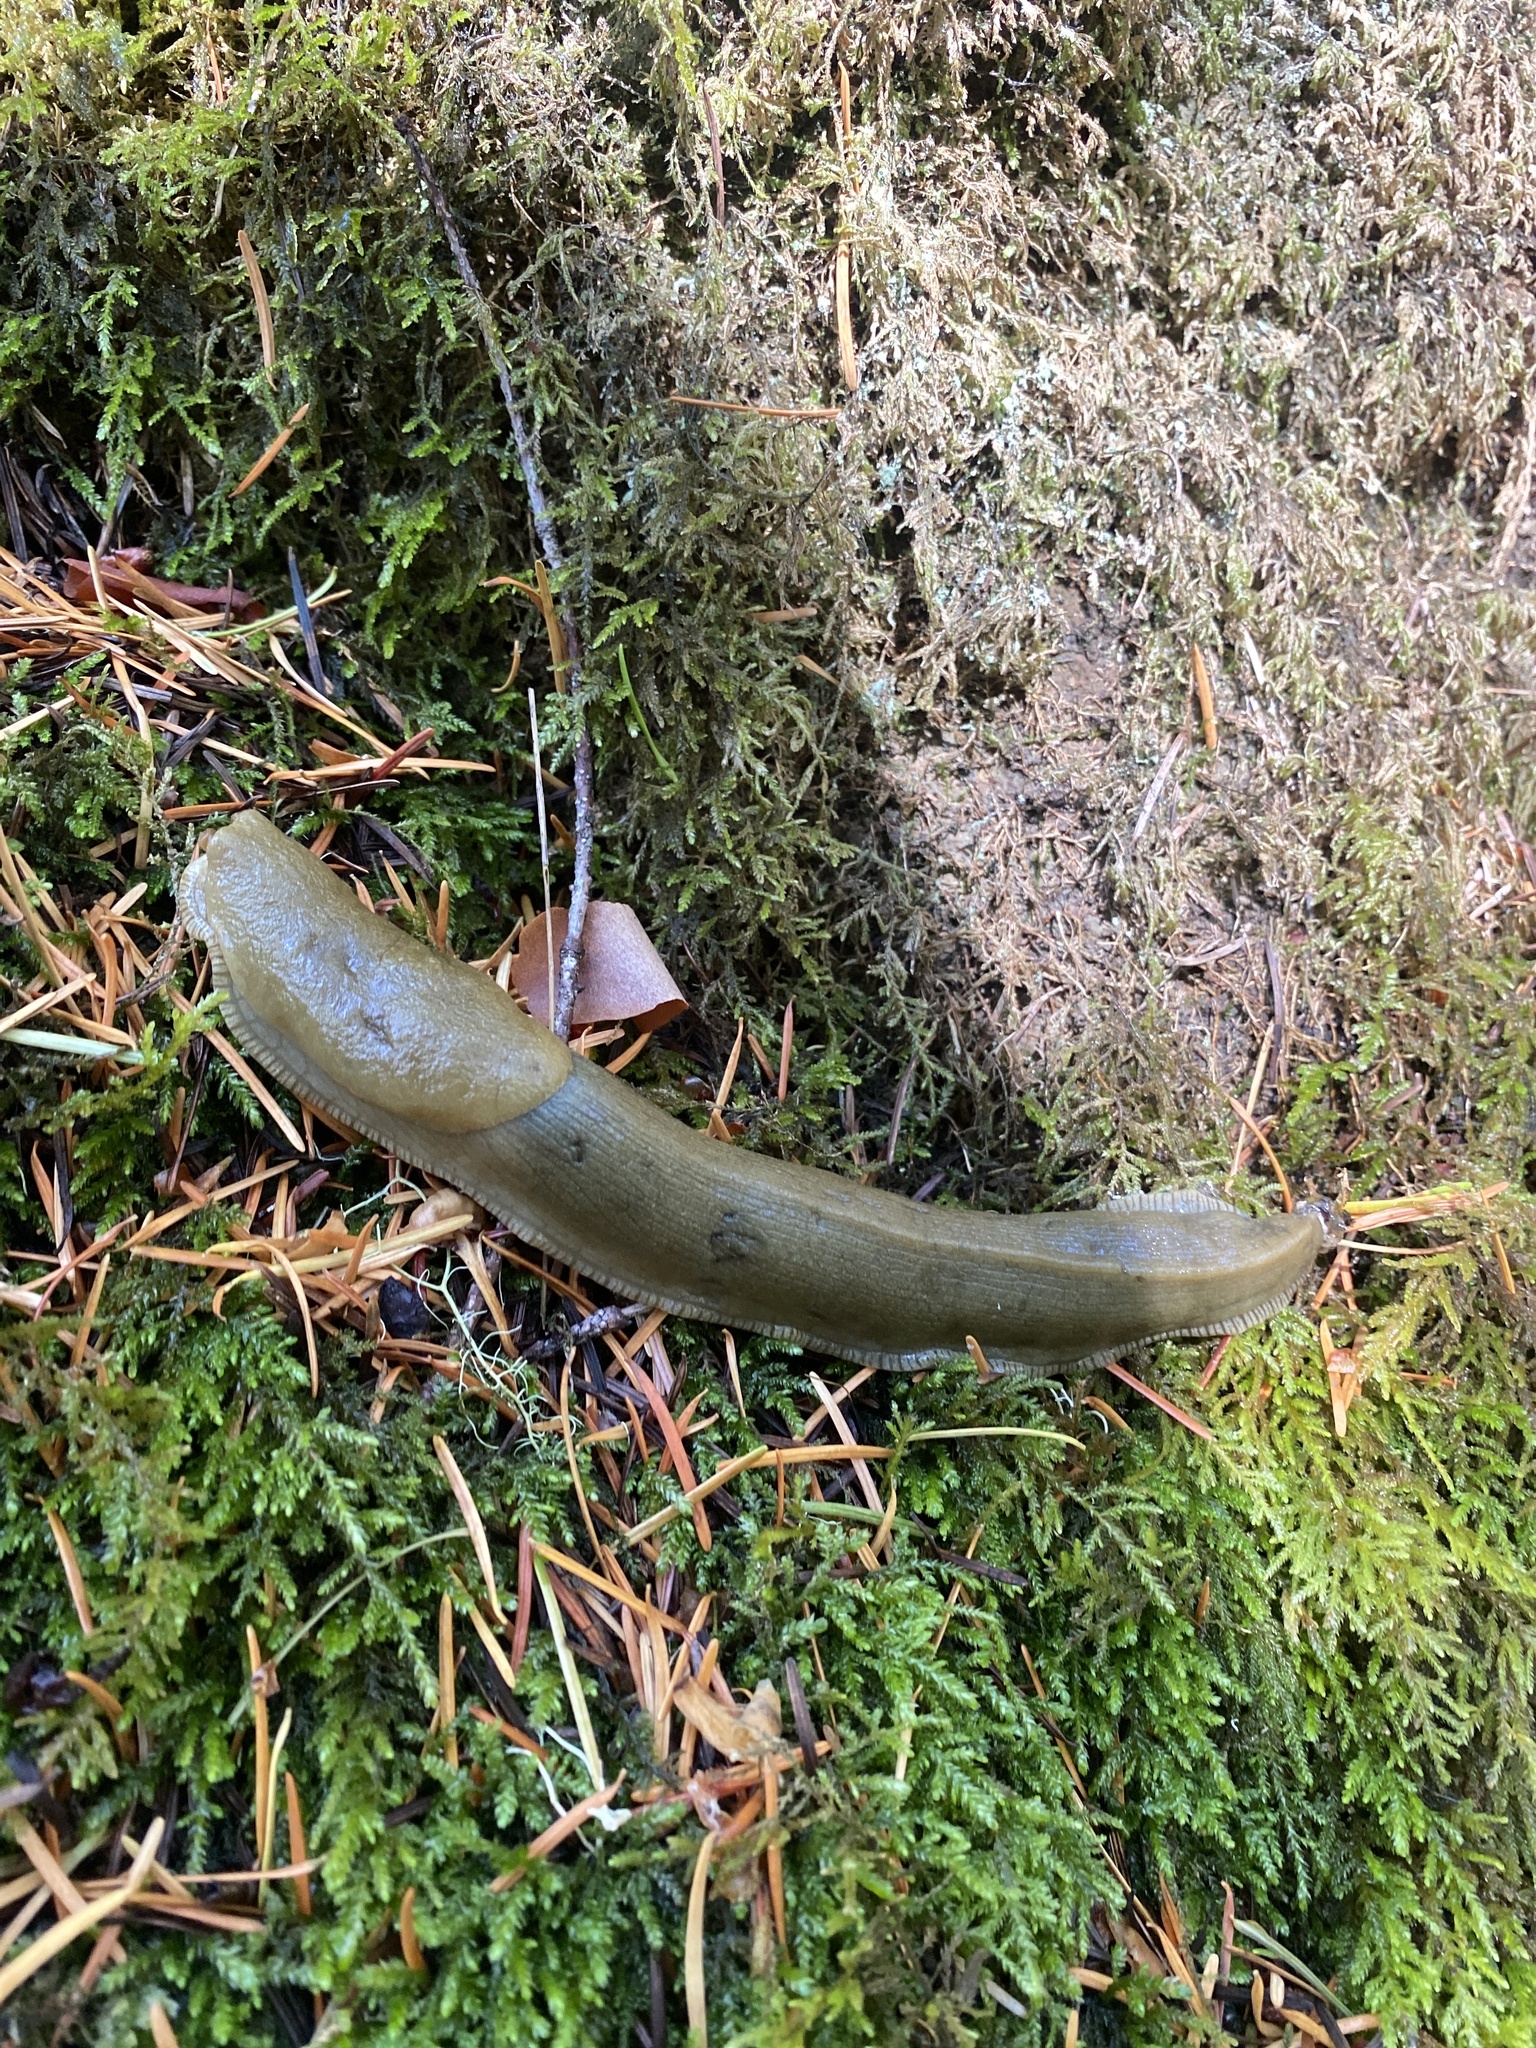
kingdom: Animalia
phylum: Mollusca
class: Gastropoda
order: Stylommatophora
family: Ariolimacidae
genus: Ariolimax
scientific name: Ariolimax columbianus
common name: Pacific banana slug
